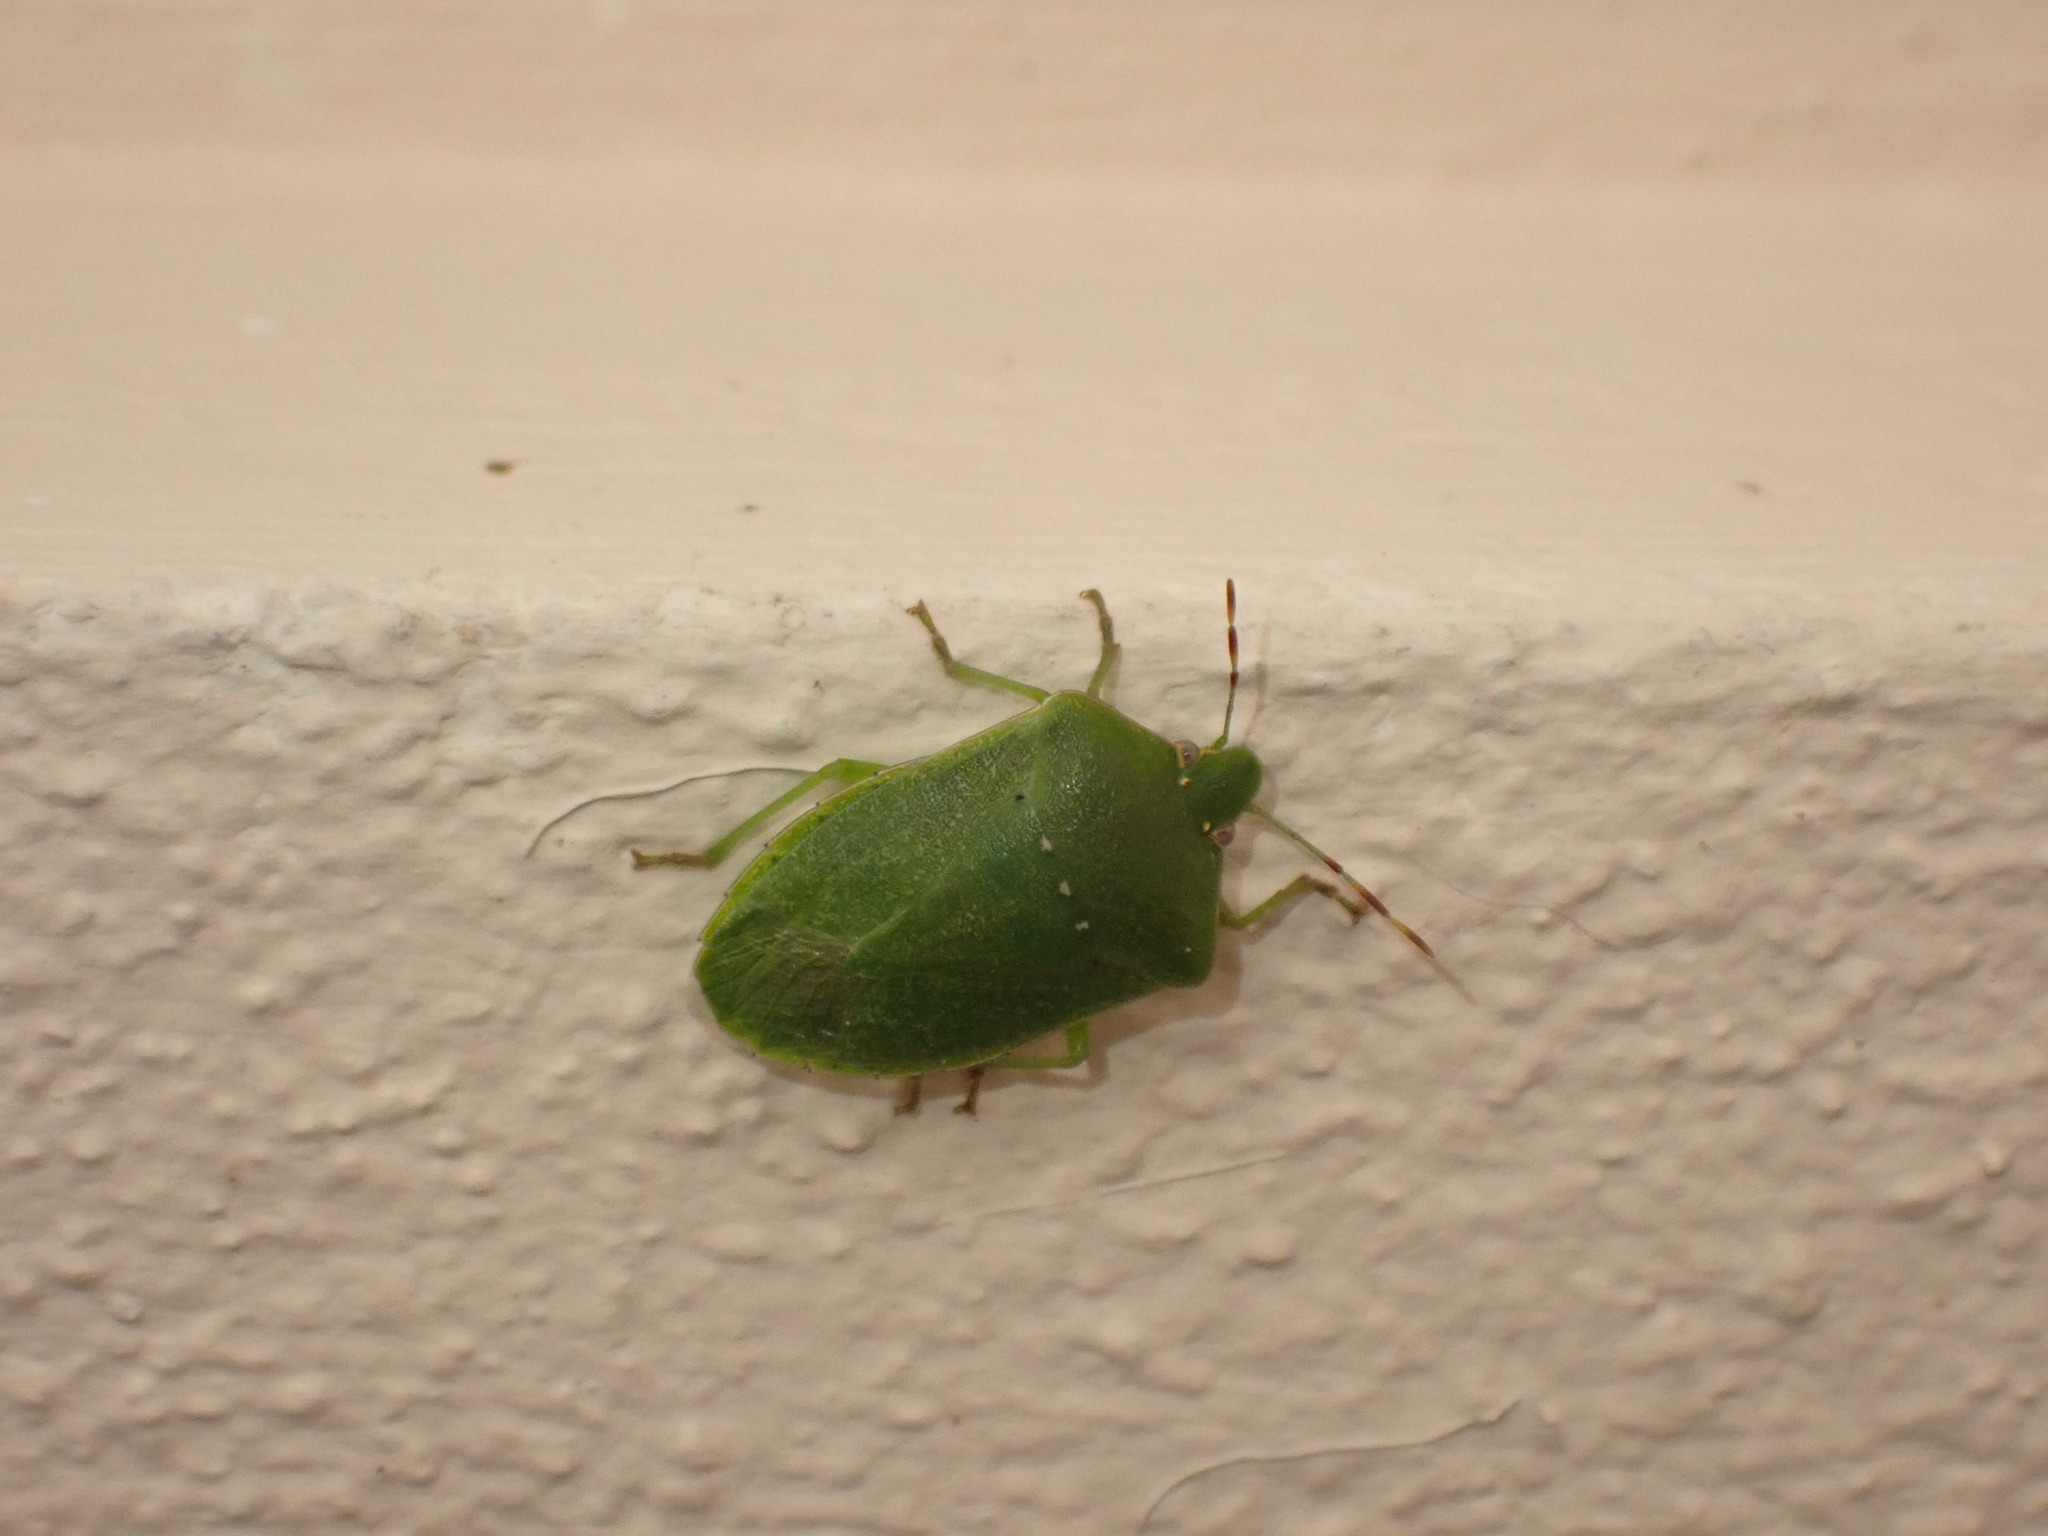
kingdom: Animalia
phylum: Arthropoda
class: Insecta
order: Hemiptera
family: Pentatomidae
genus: Nezara
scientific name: Nezara viridula
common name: Southern green stink bug
